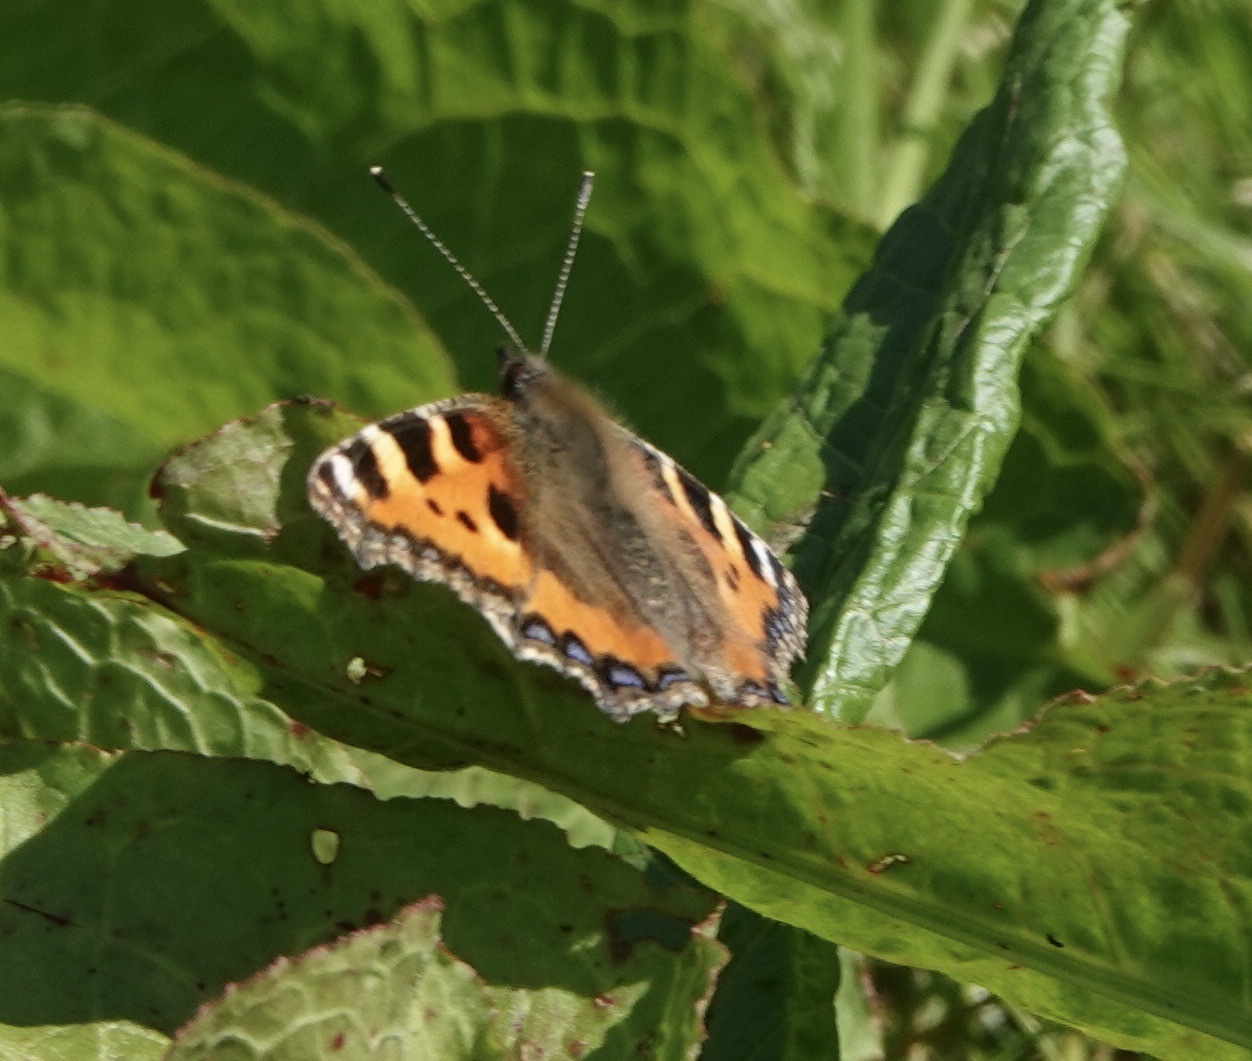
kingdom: Animalia
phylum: Arthropoda
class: Insecta
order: Lepidoptera
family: Nymphalidae
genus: Aglais
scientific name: Aglais urticae
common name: Small tortoiseshell
